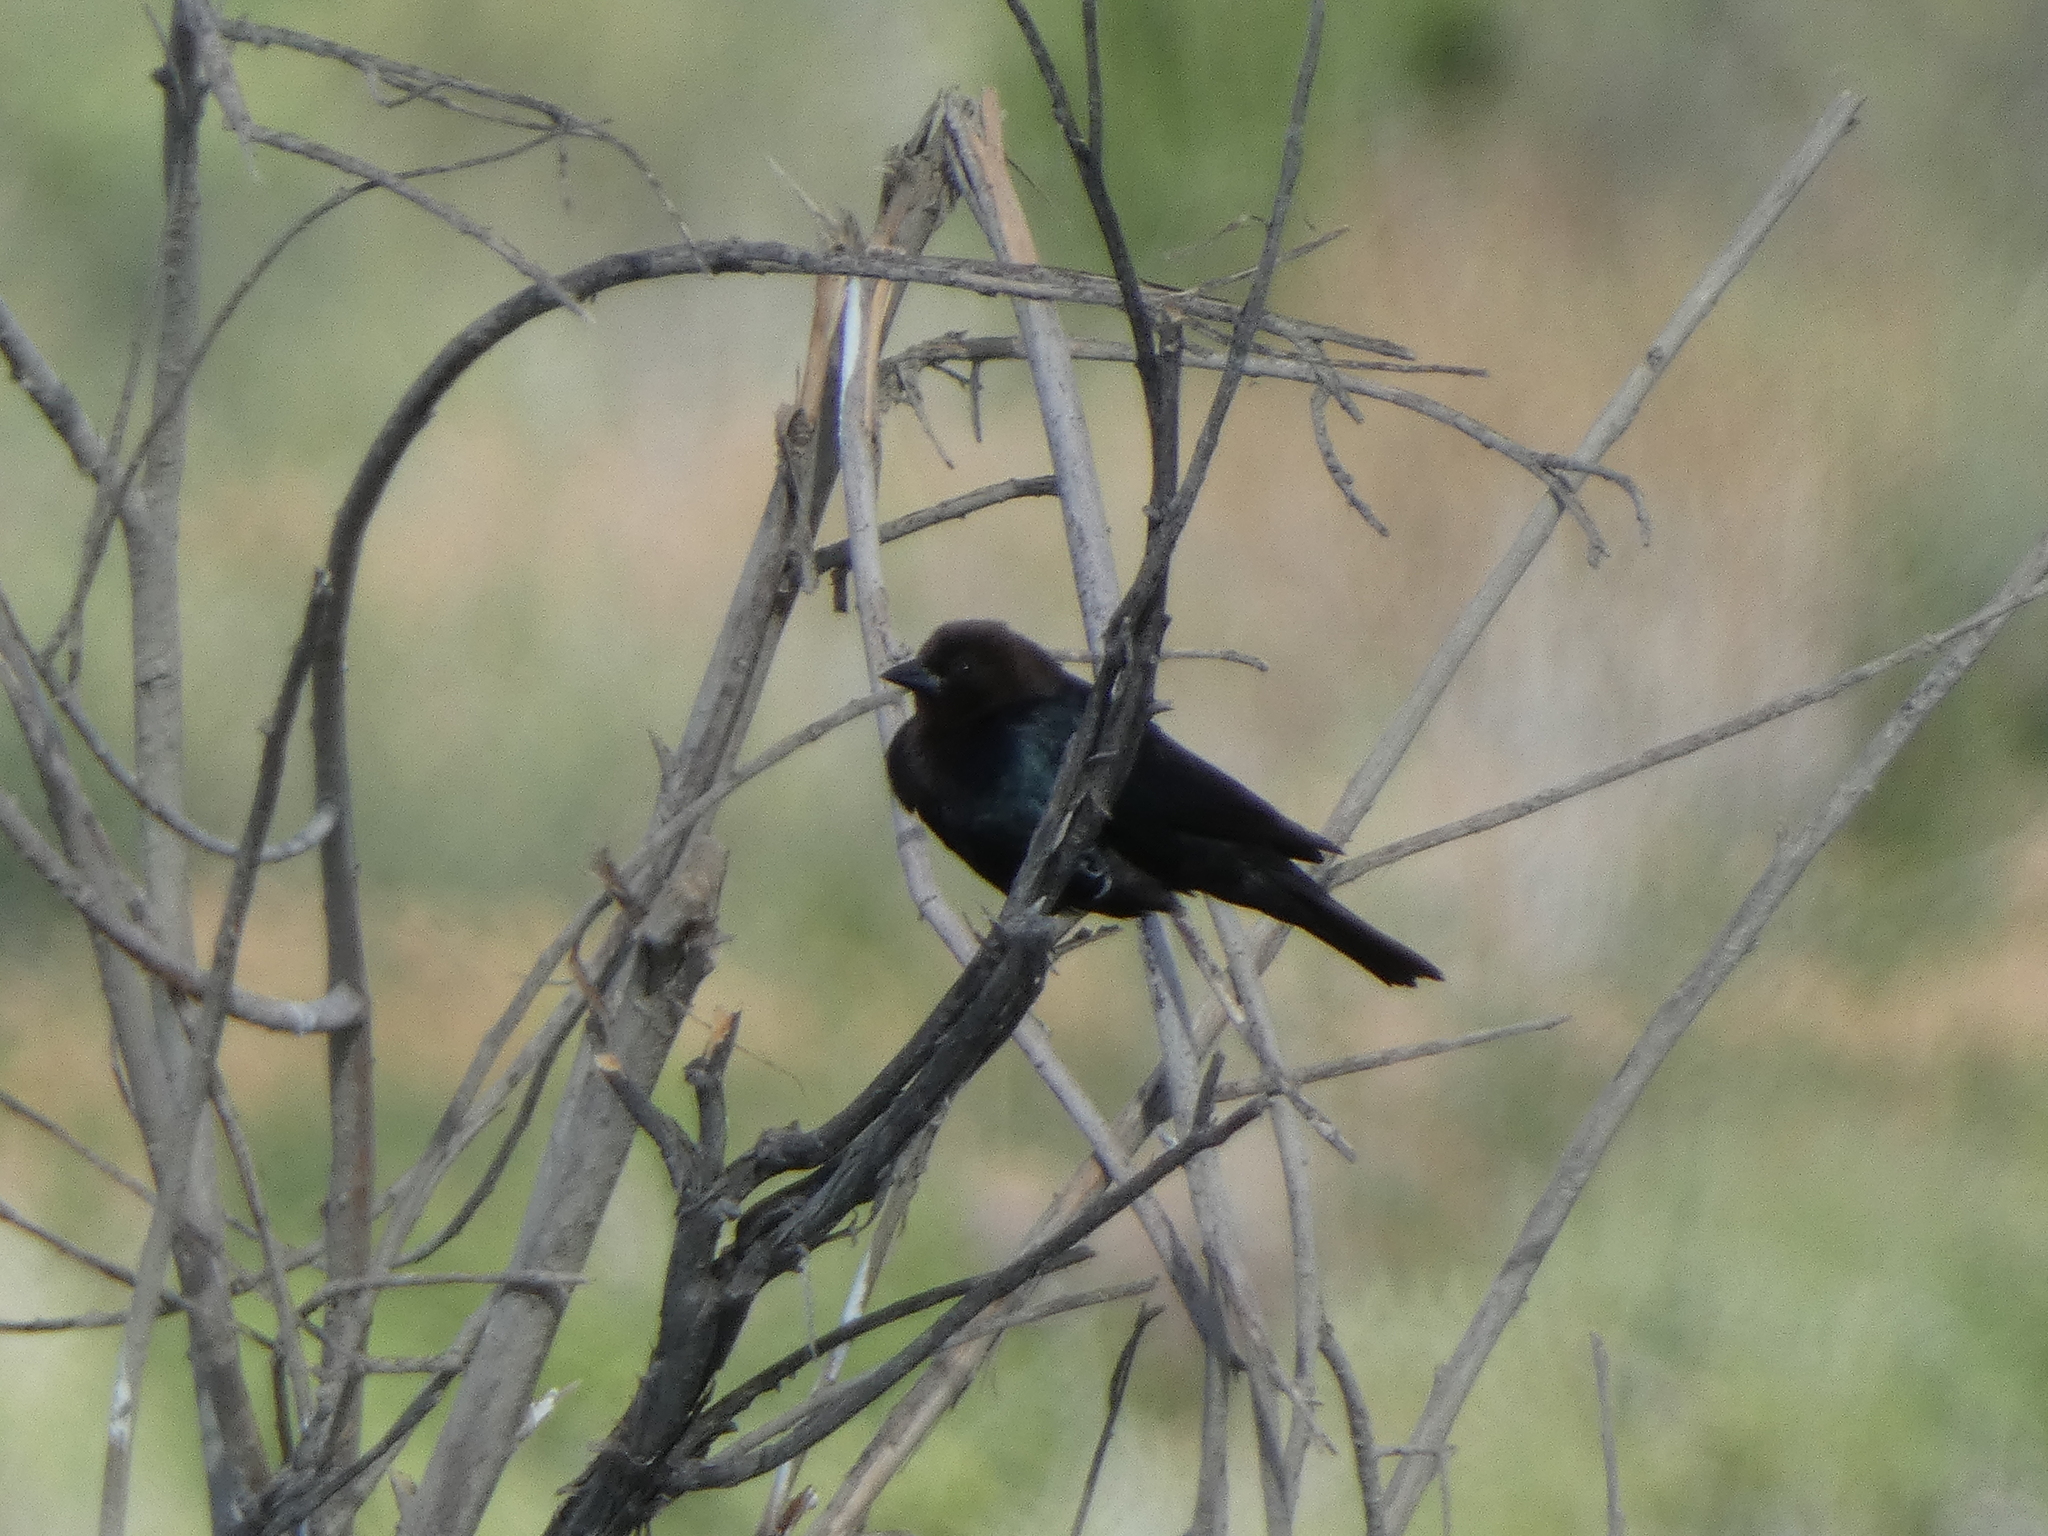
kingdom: Animalia
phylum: Chordata
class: Aves
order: Passeriformes
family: Icteridae
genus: Molothrus
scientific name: Molothrus ater
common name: Brown-headed cowbird
